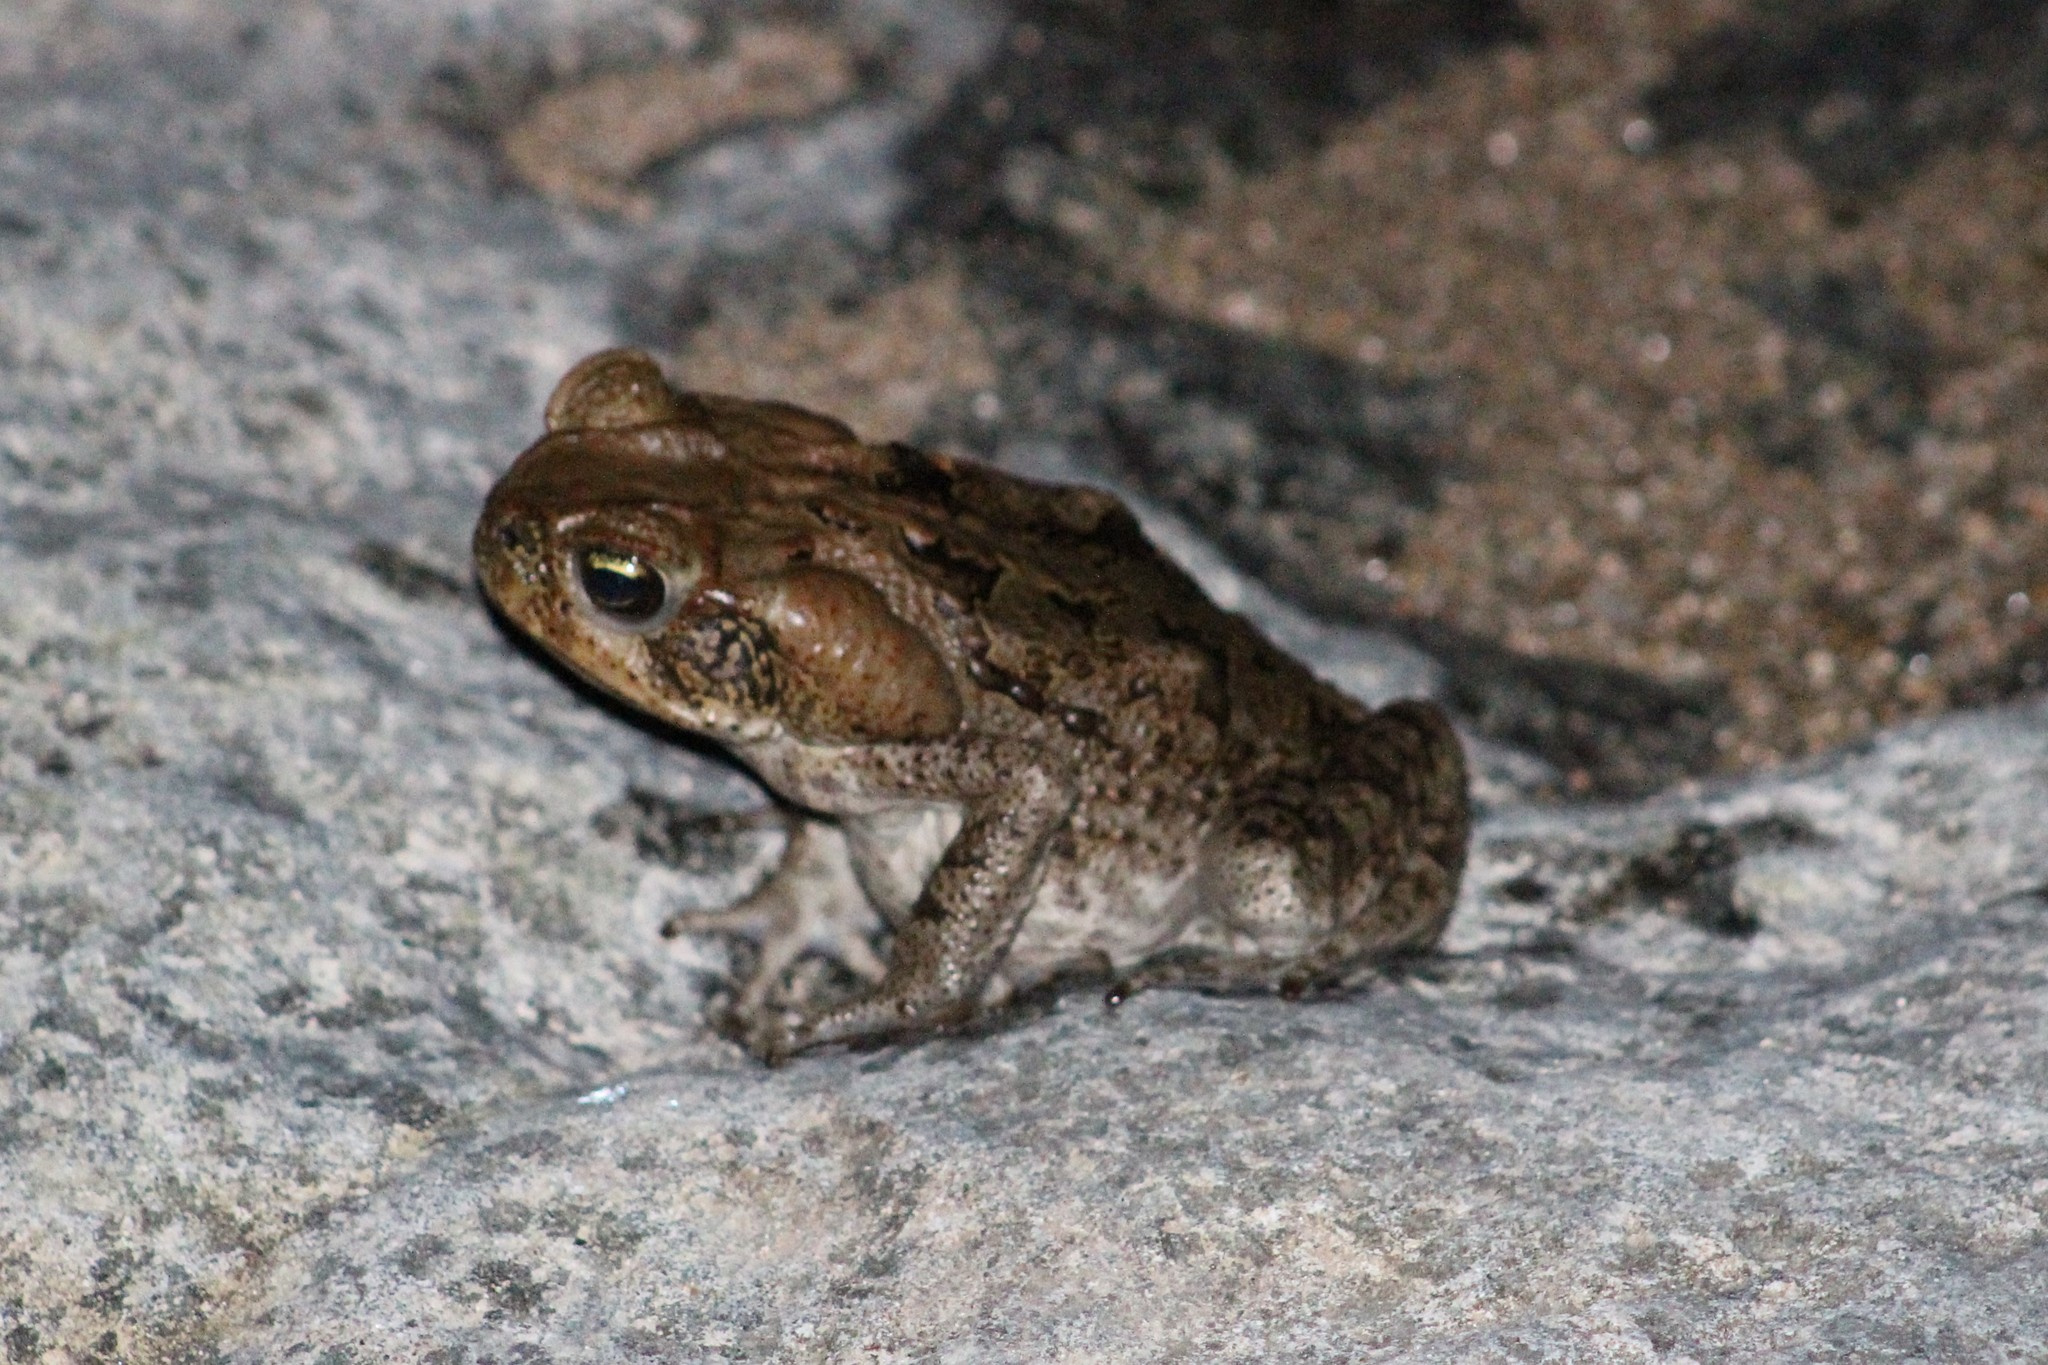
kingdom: Animalia
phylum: Chordata
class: Amphibia
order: Anura
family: Bufonidae
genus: Rhinella
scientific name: Rhinella marina
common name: Cane toad
